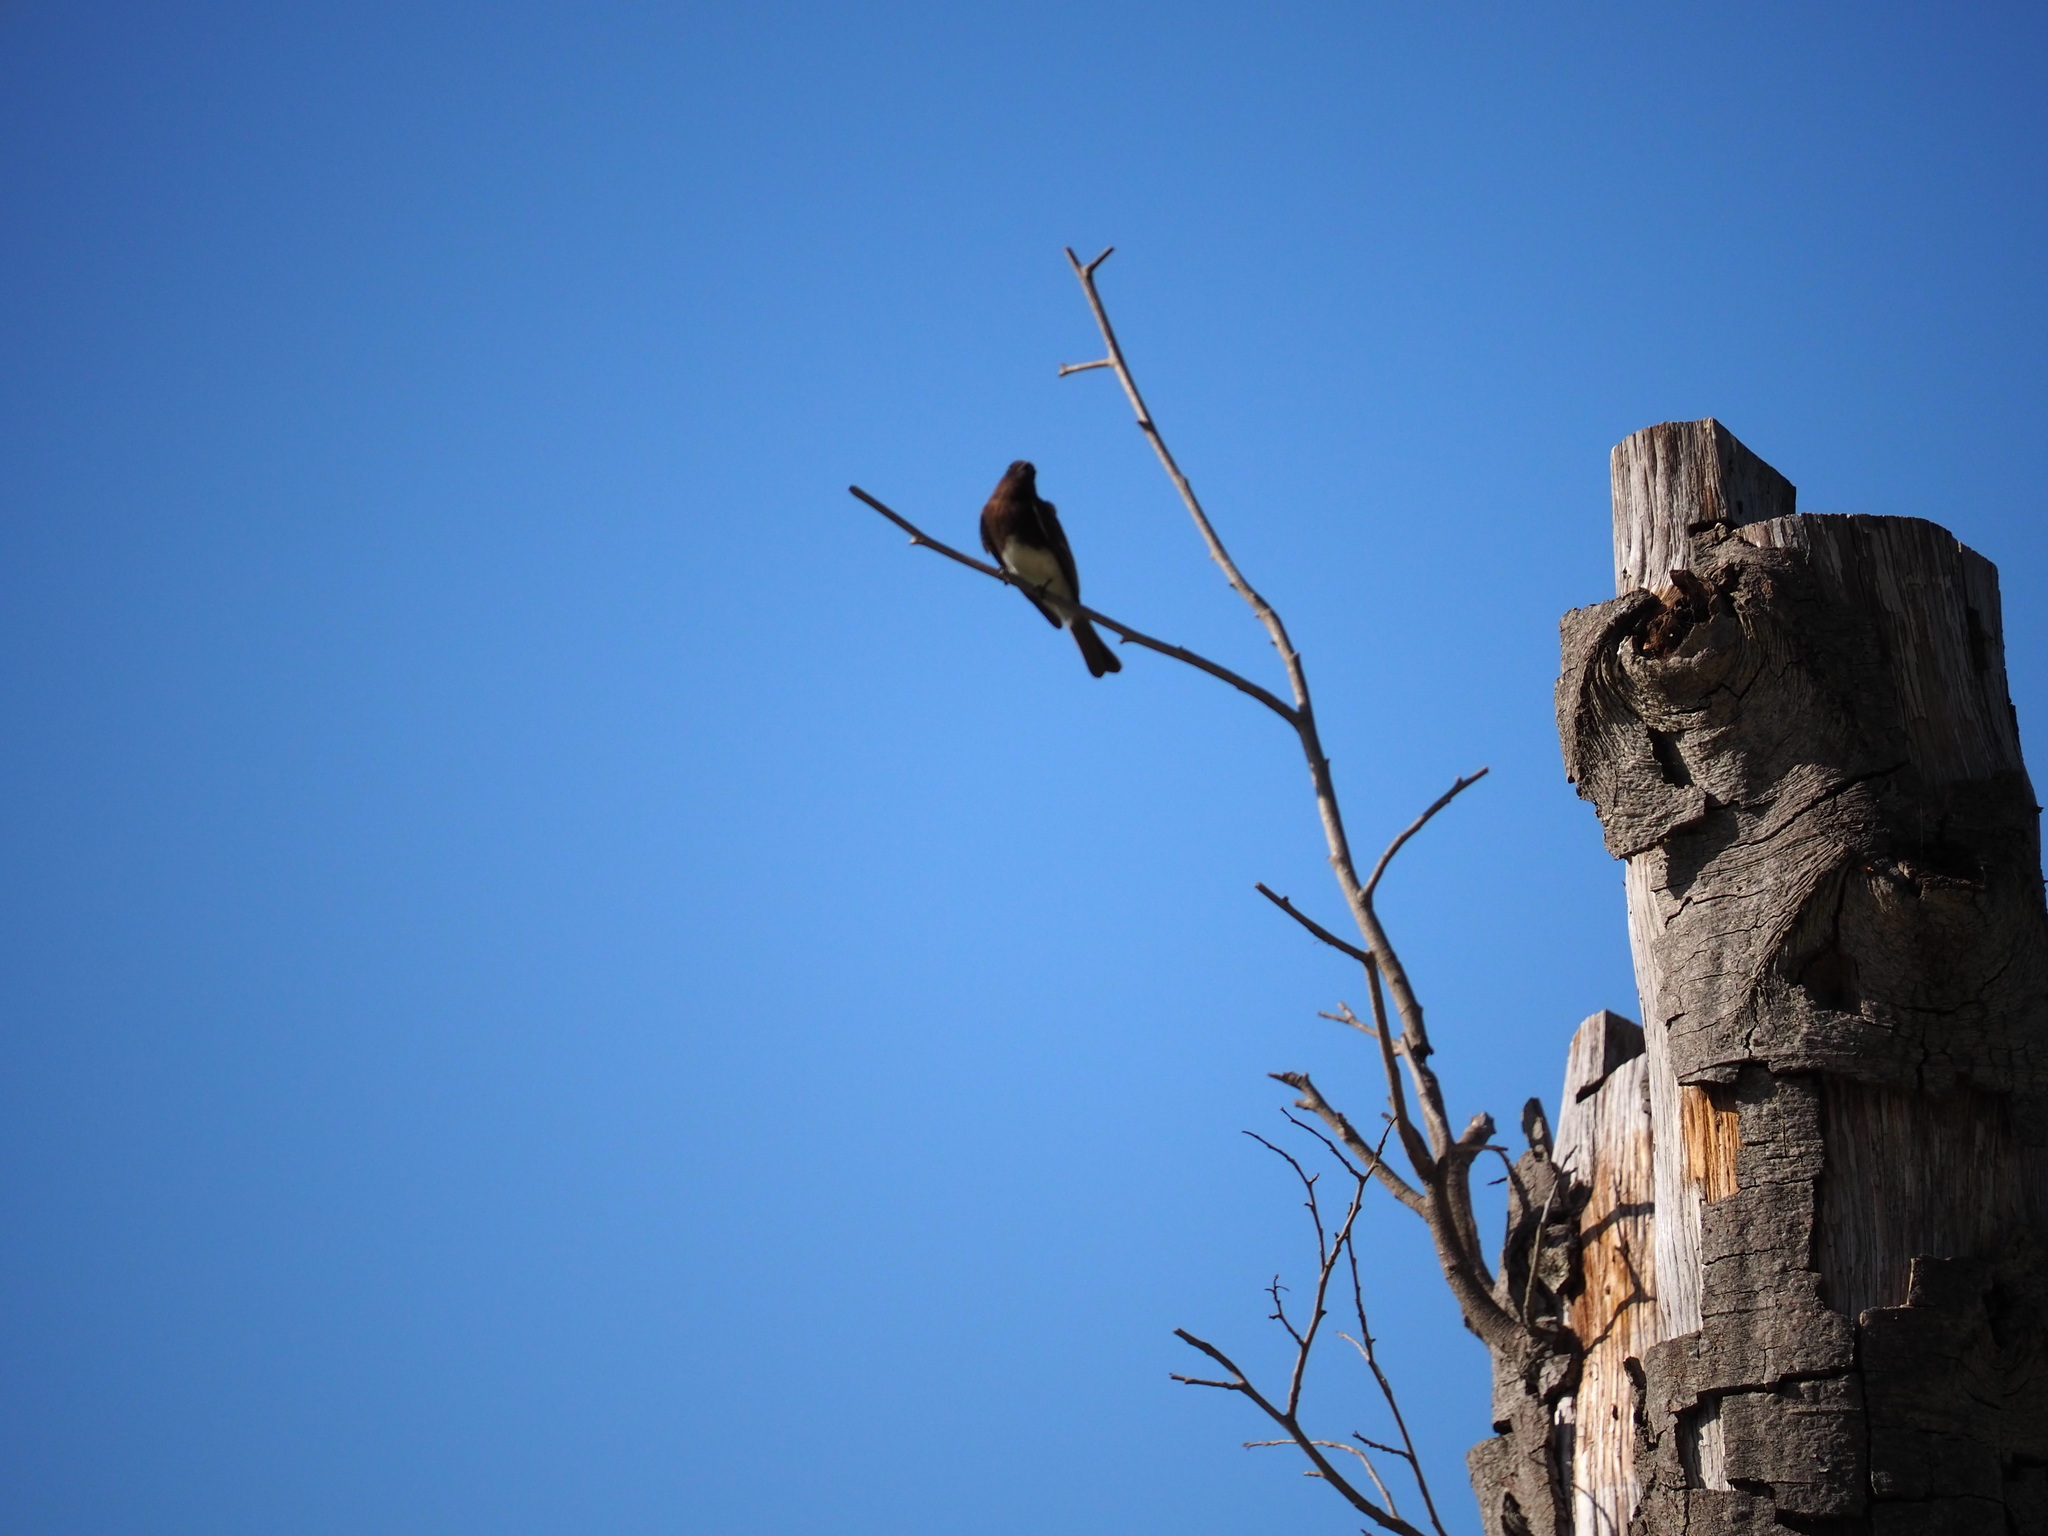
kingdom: Animalia
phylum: Chordata
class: Aves
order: Passeriformes
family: Tyrannidae
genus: Sayornis
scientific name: Sayornis nigricans
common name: Black phoebe
